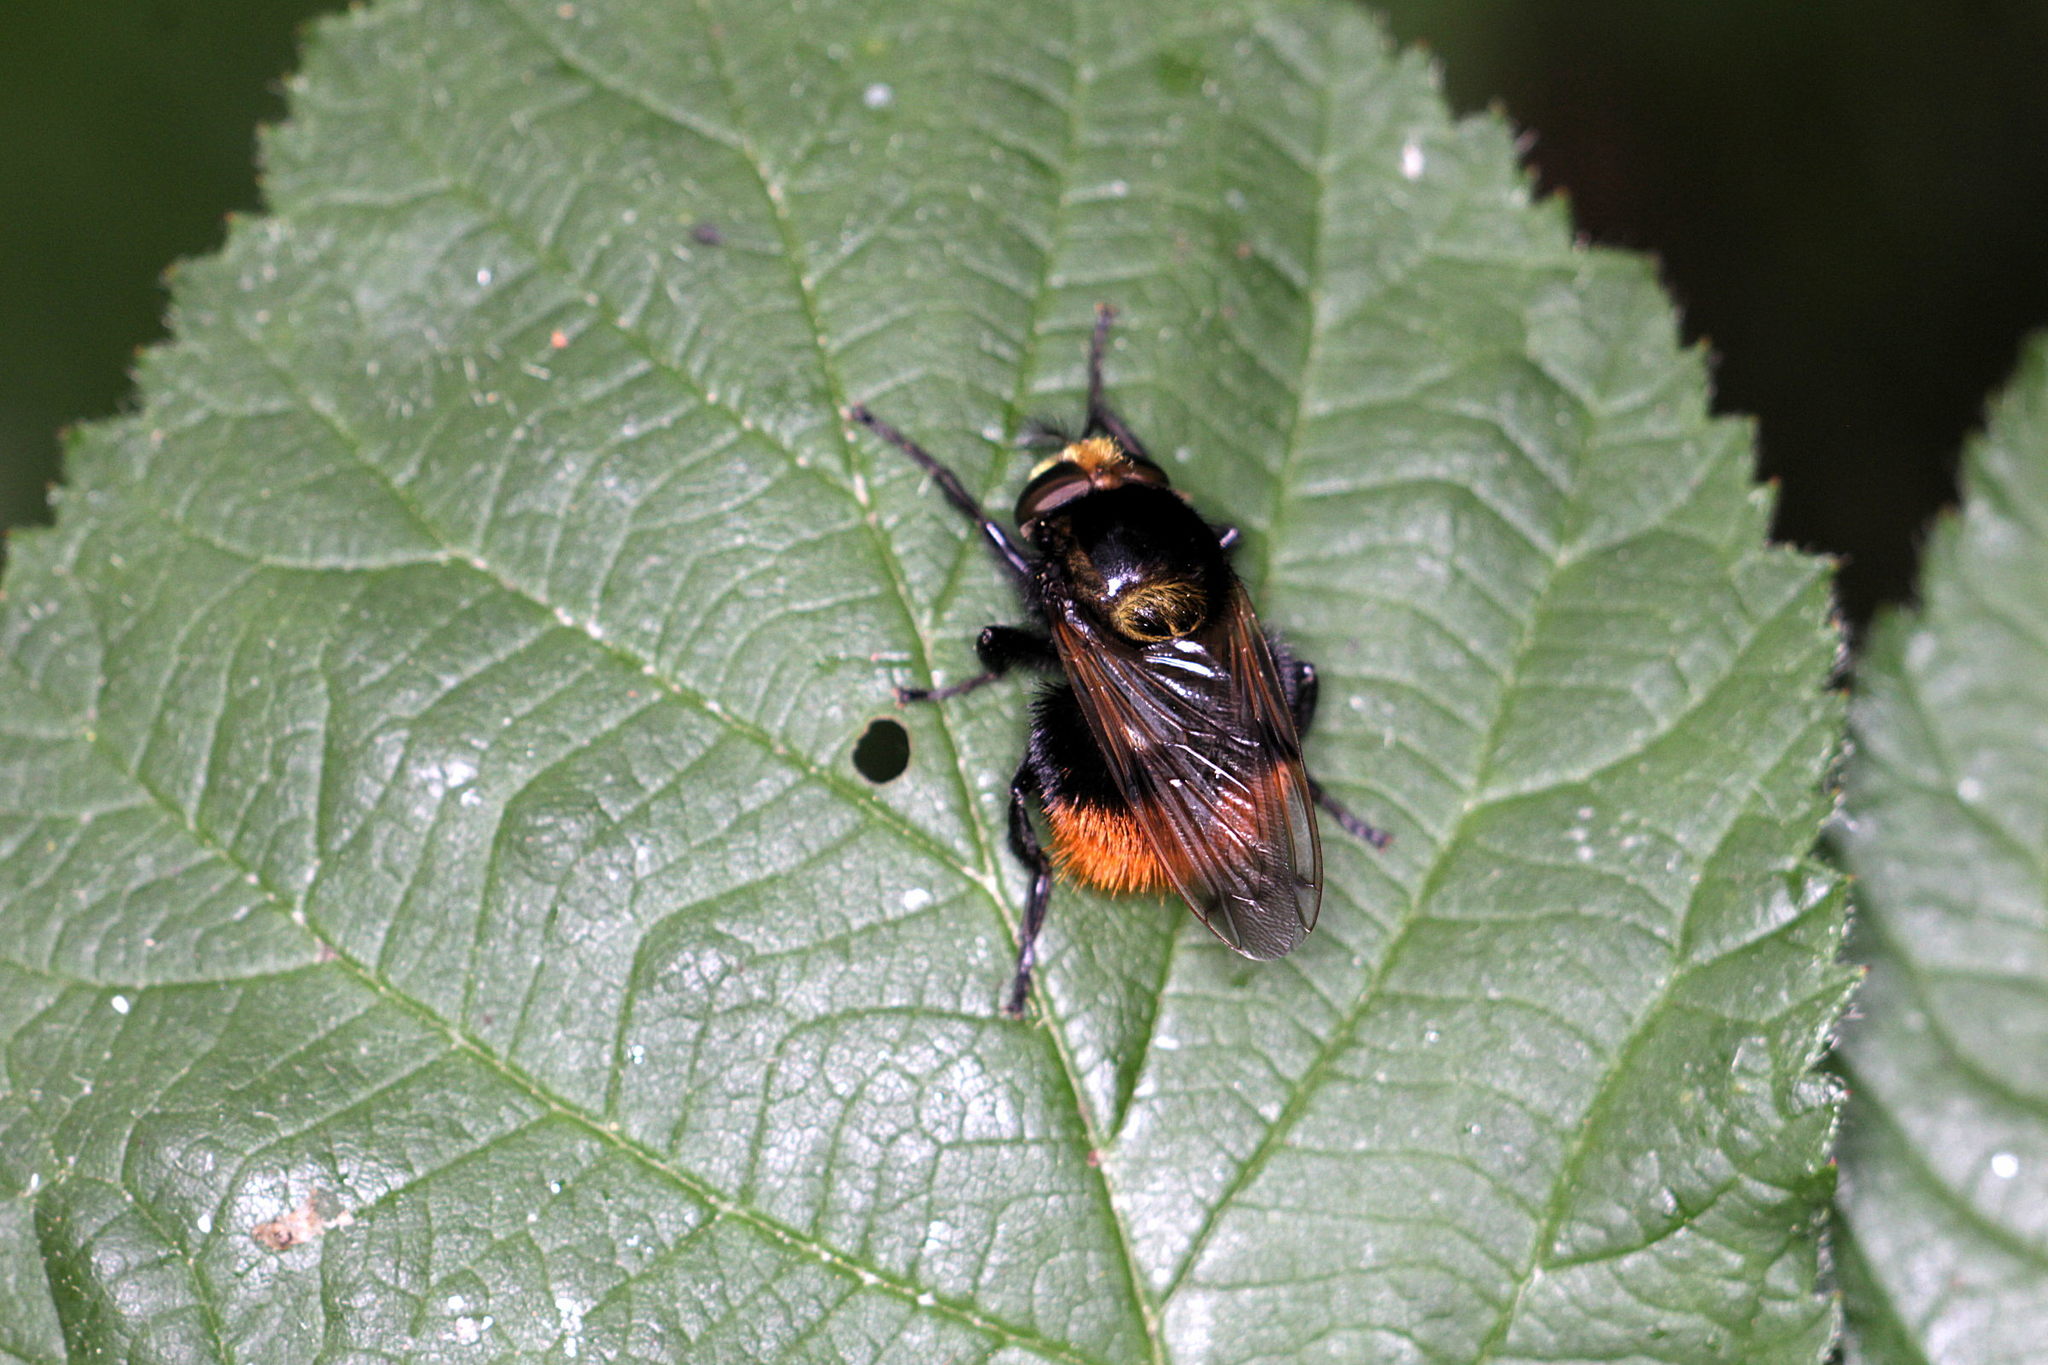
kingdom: Animalia
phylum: Arthropoda
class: Insecta
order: Diptera
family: Syrphidae
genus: Volucella
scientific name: Volucella bombylans
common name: Bumble bee hover fly
